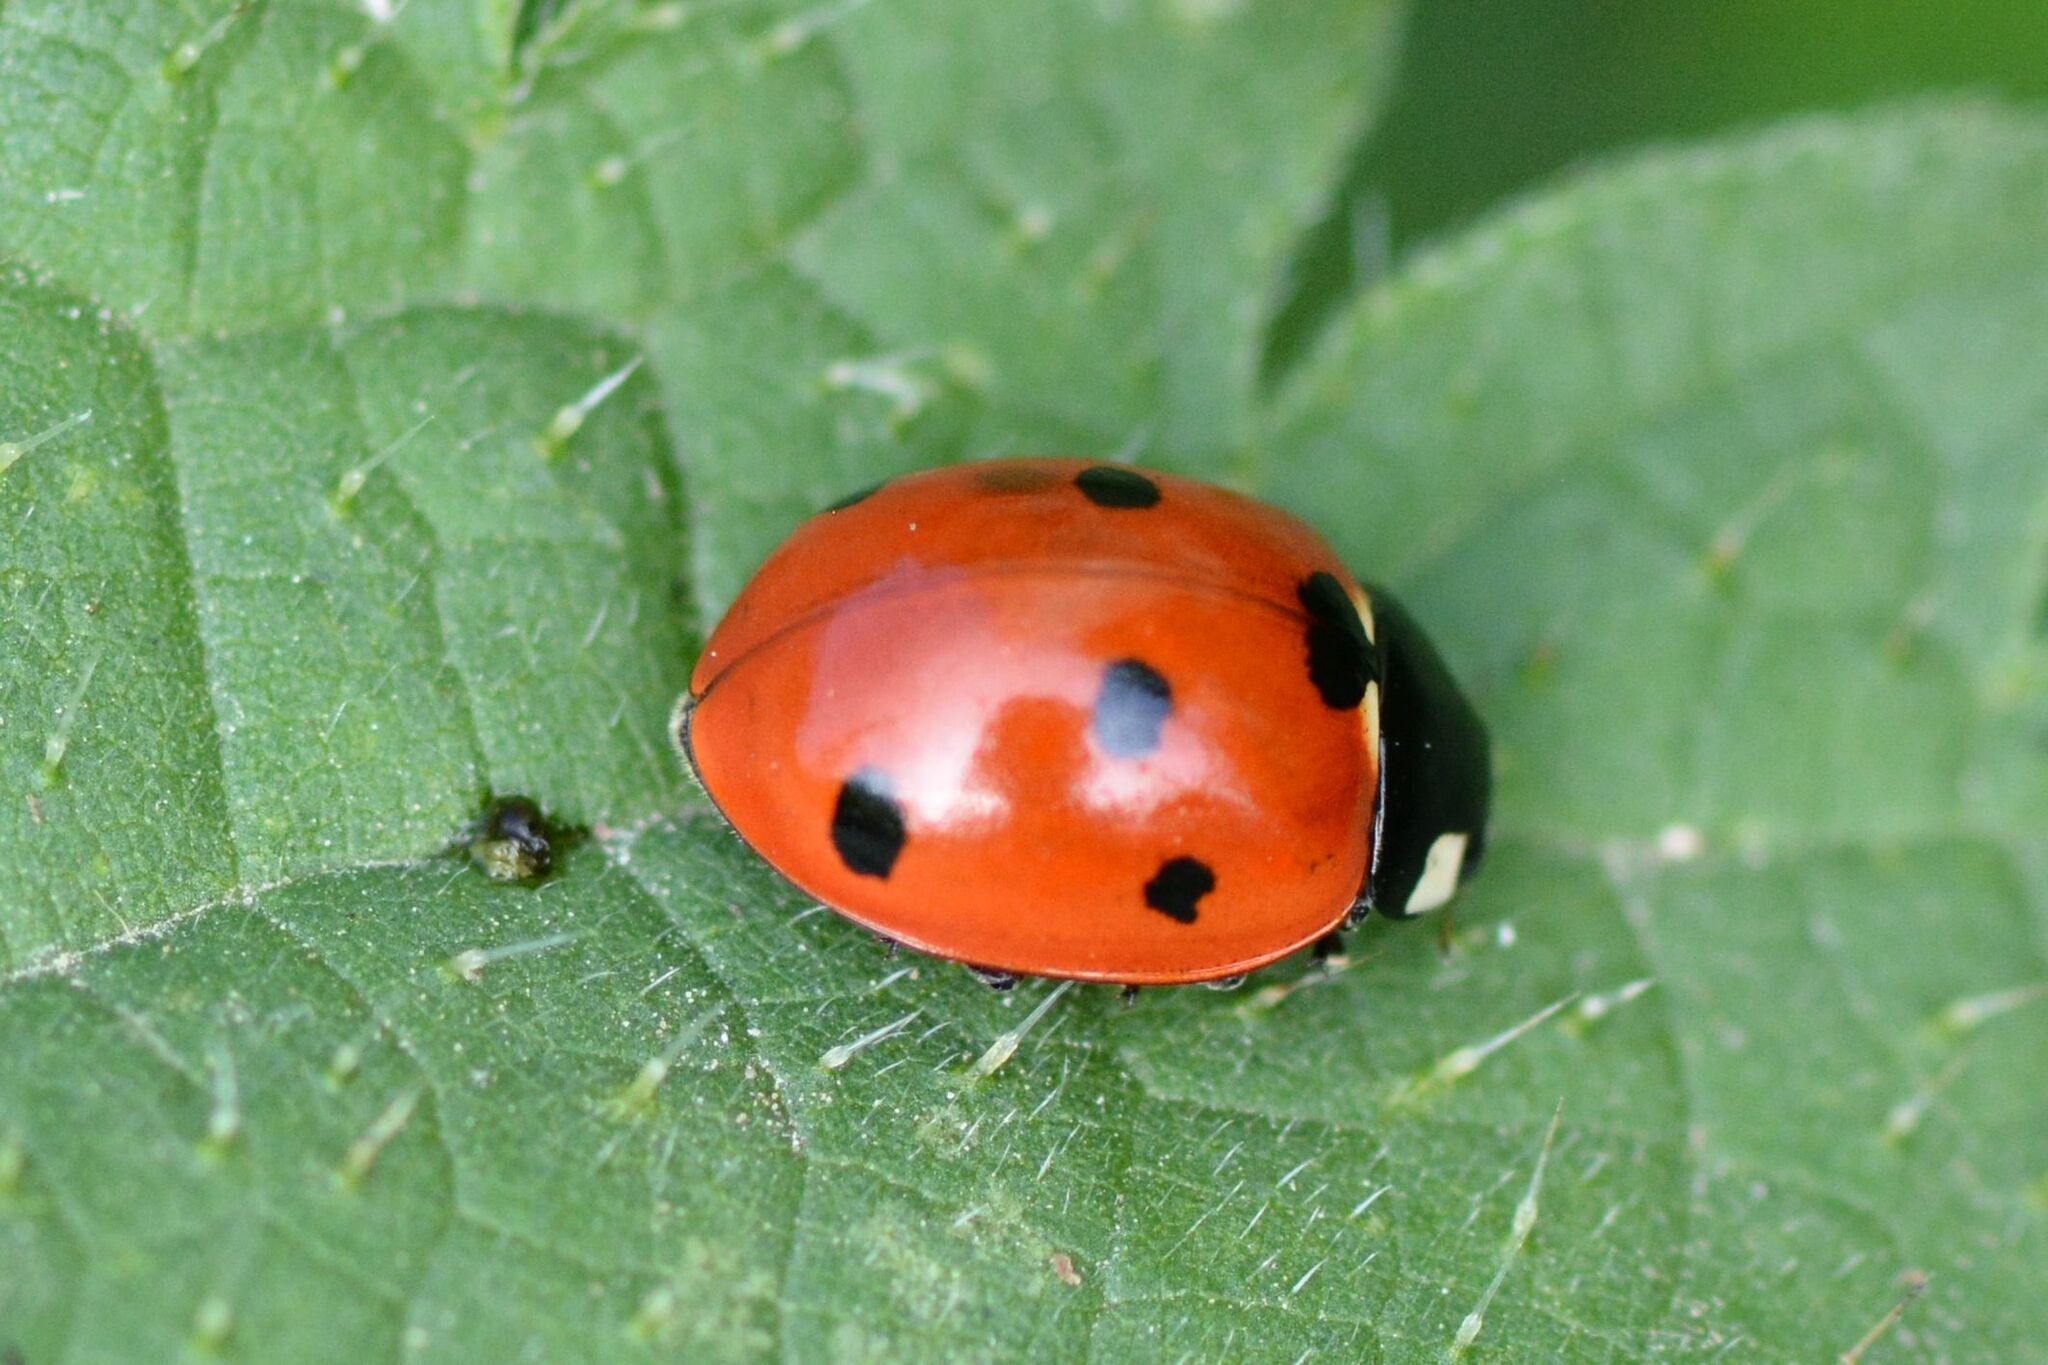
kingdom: Animalia
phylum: Arthropoda
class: Insecta
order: Coleoptera
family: Coccinellidae
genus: Coccinella
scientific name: Coccinella septempunctata
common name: Sevenspotted lady beetle
